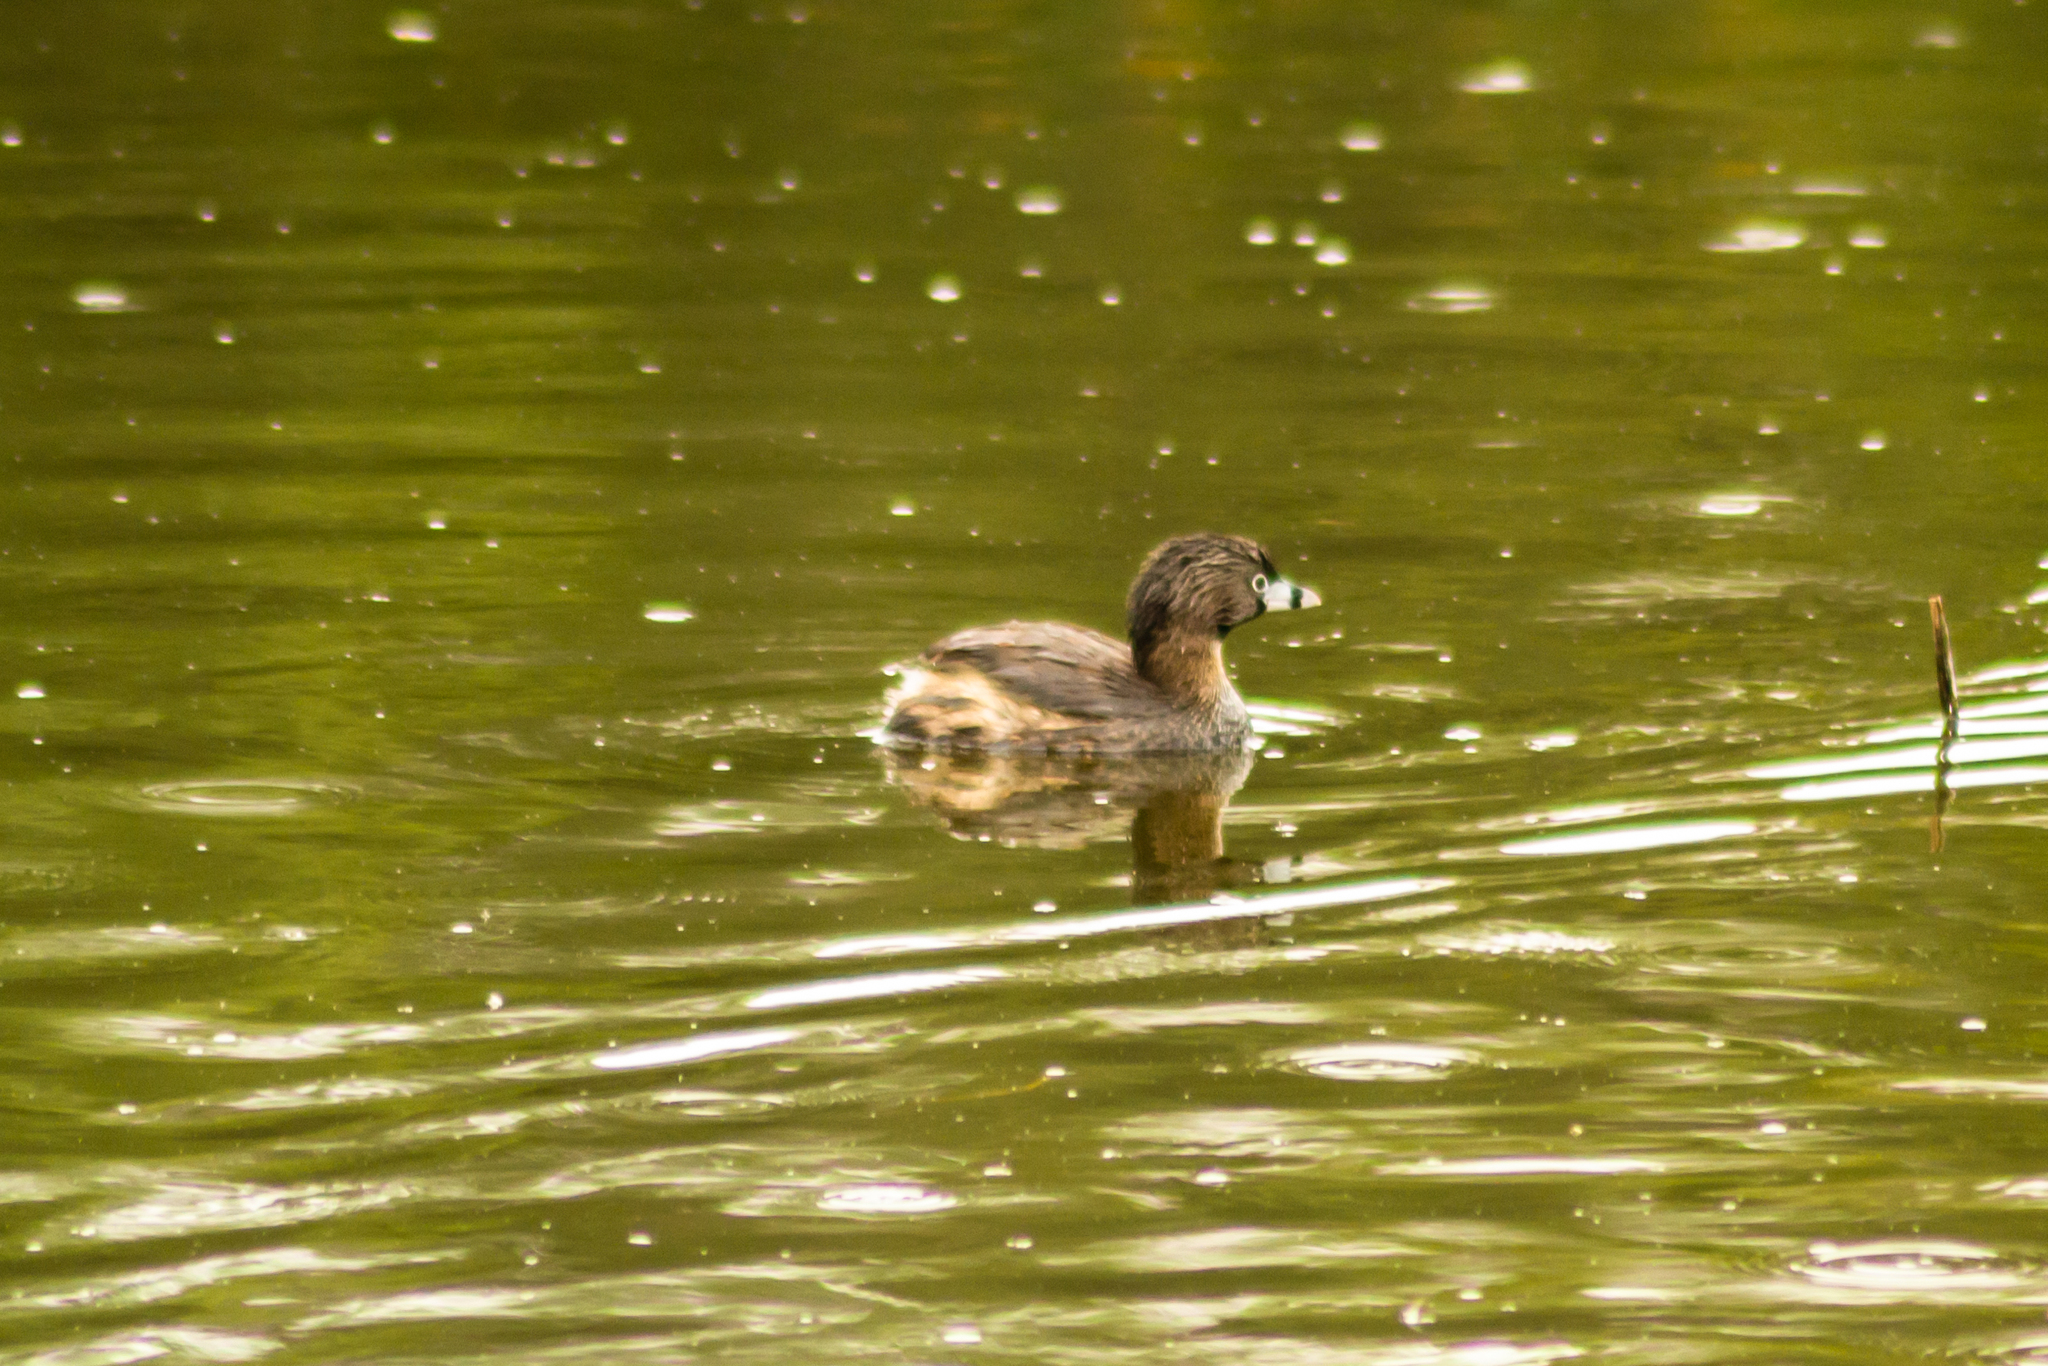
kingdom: Animalia
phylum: Chordata
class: Aves
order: Podicipediformes
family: Podicipedidae
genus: Podilymbus
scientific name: Podilymbus podiceps
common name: Pied-billed grebe
